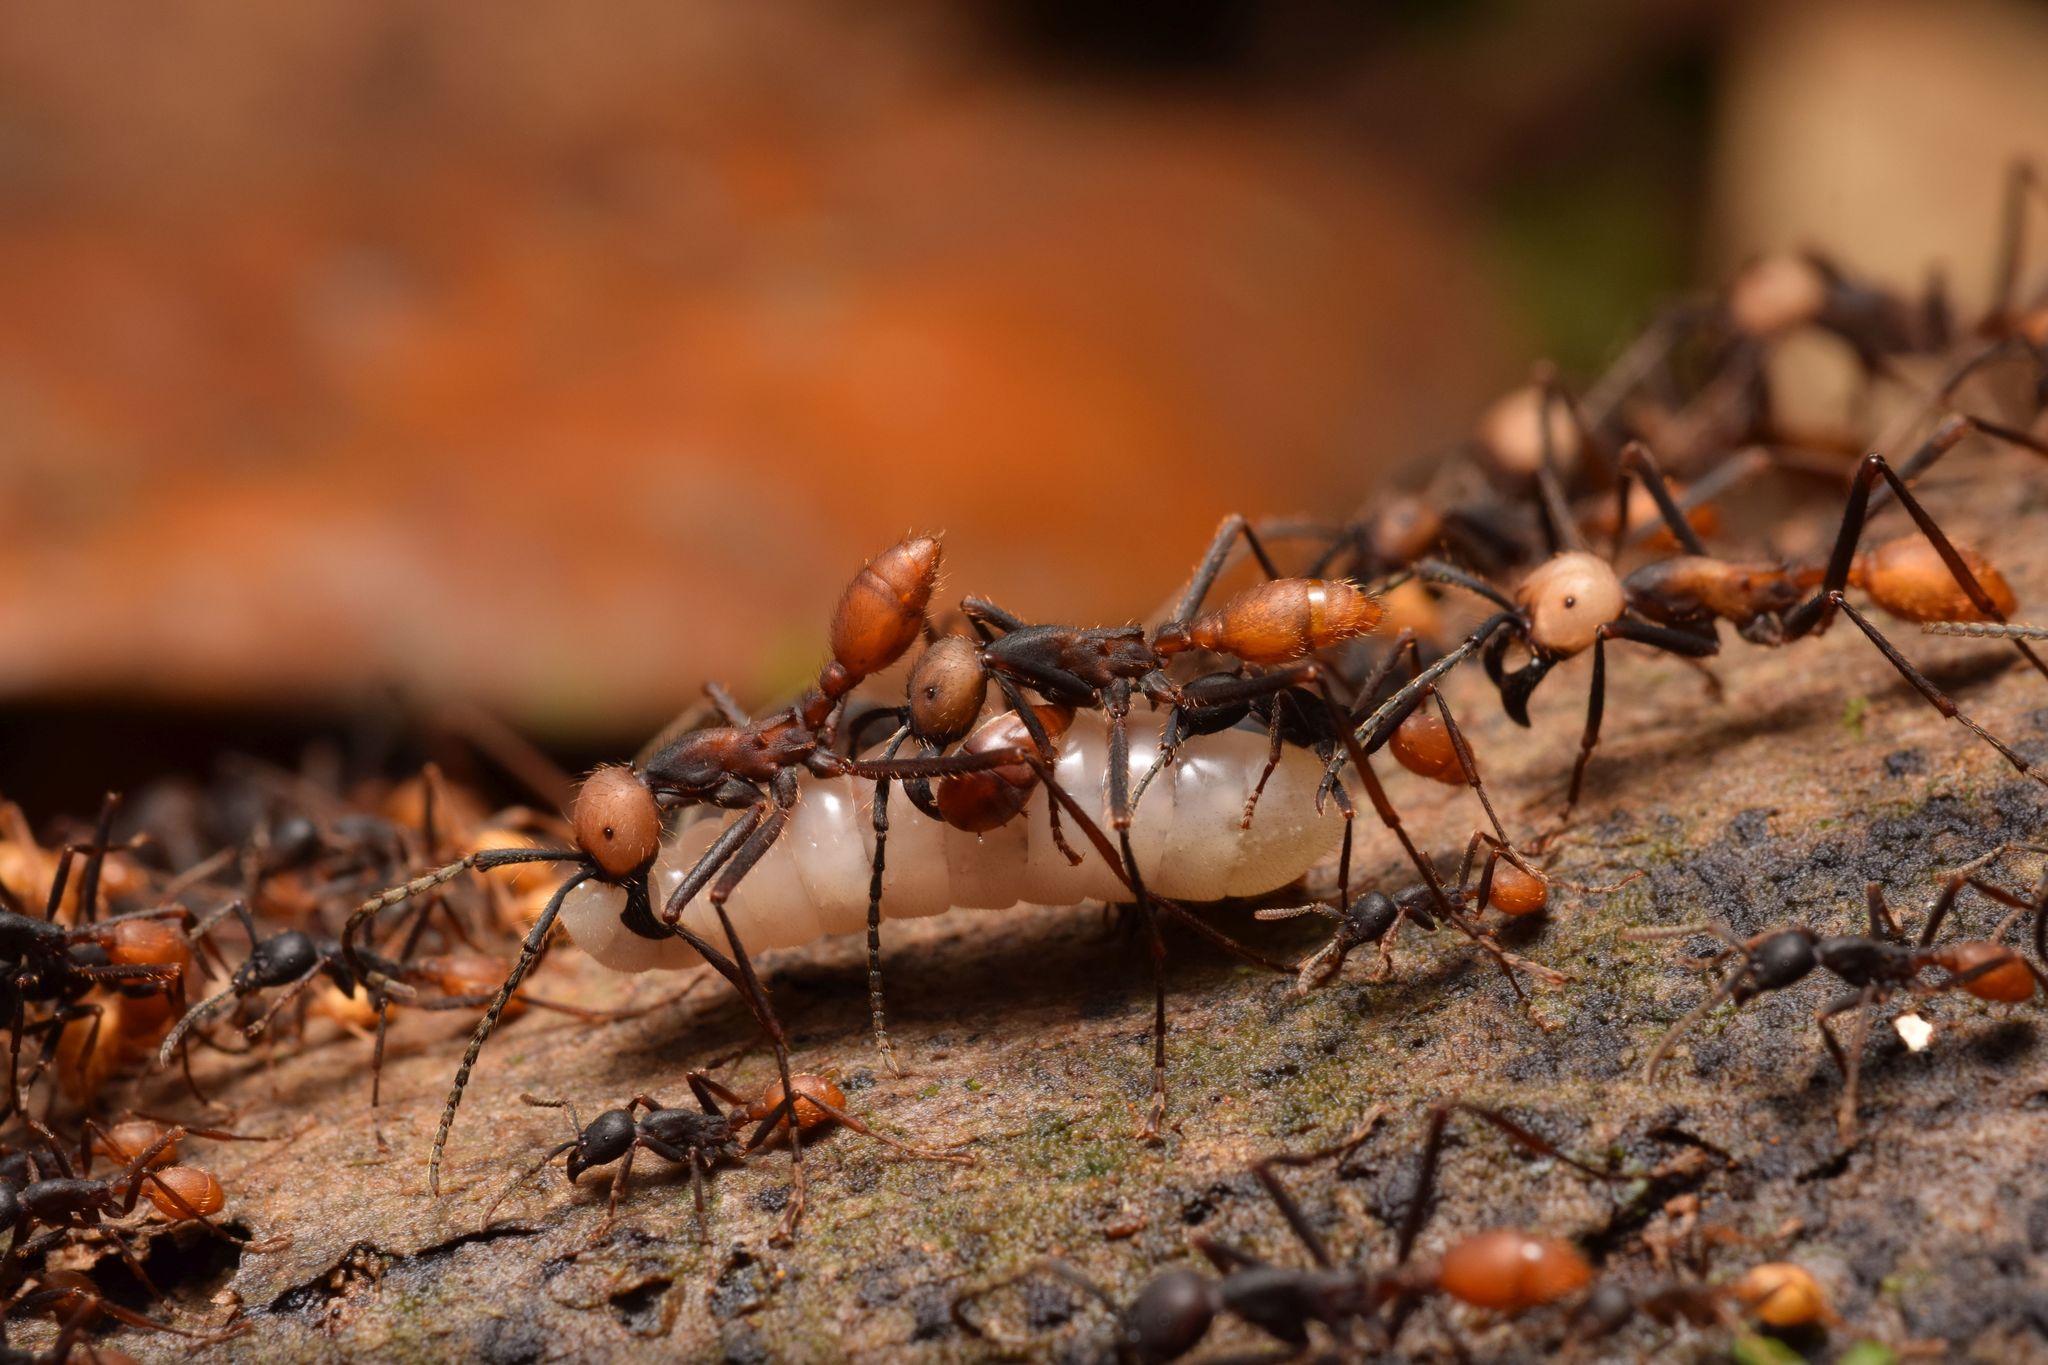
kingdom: Animalia
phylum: Arthropoda
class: Insecta
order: Hymenoptera
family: Formicidae
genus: Eciton
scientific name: Eciton burchellii
